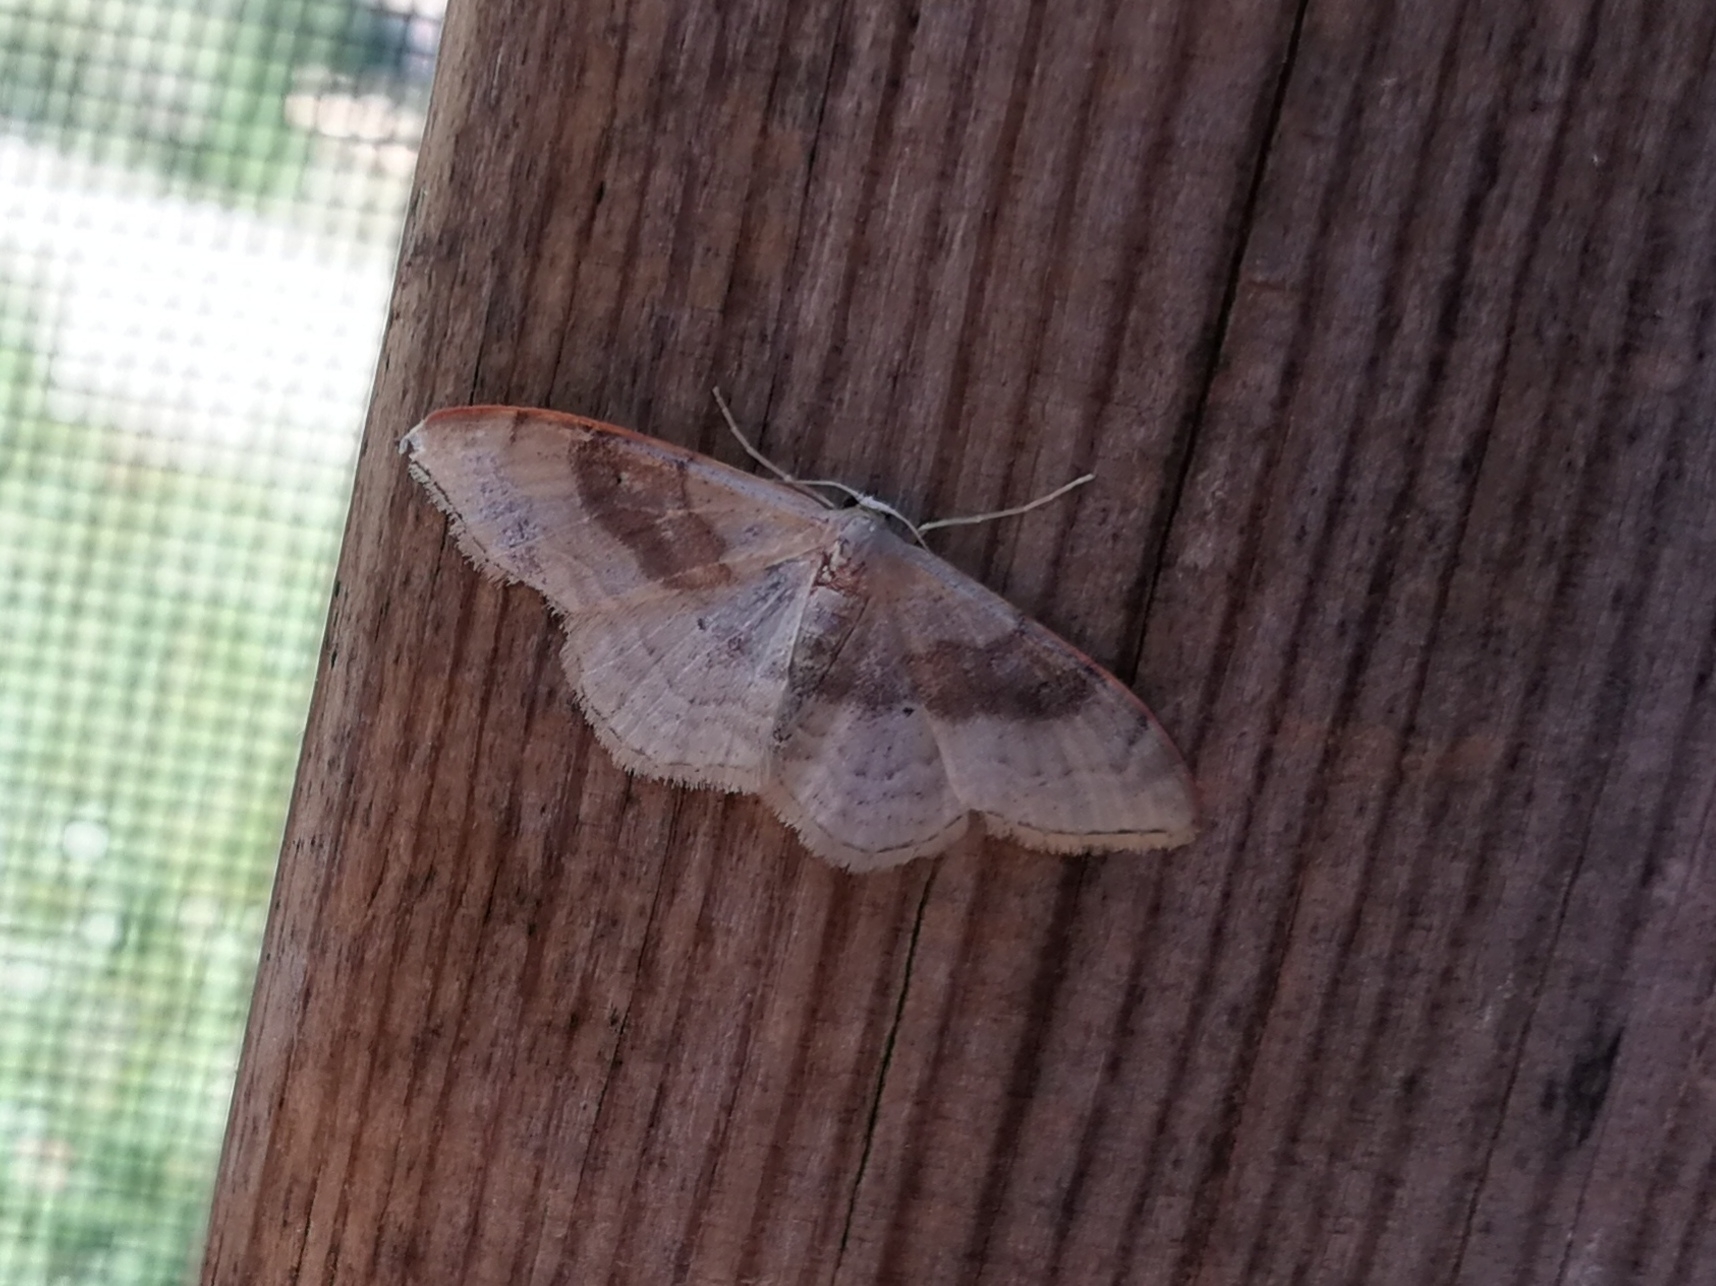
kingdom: Animalia
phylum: Arthropoda
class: Insecta
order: Lepidoptera
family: Geometridae
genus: Idaea
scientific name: Idaea degeneraria
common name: Portland ribbon wave
